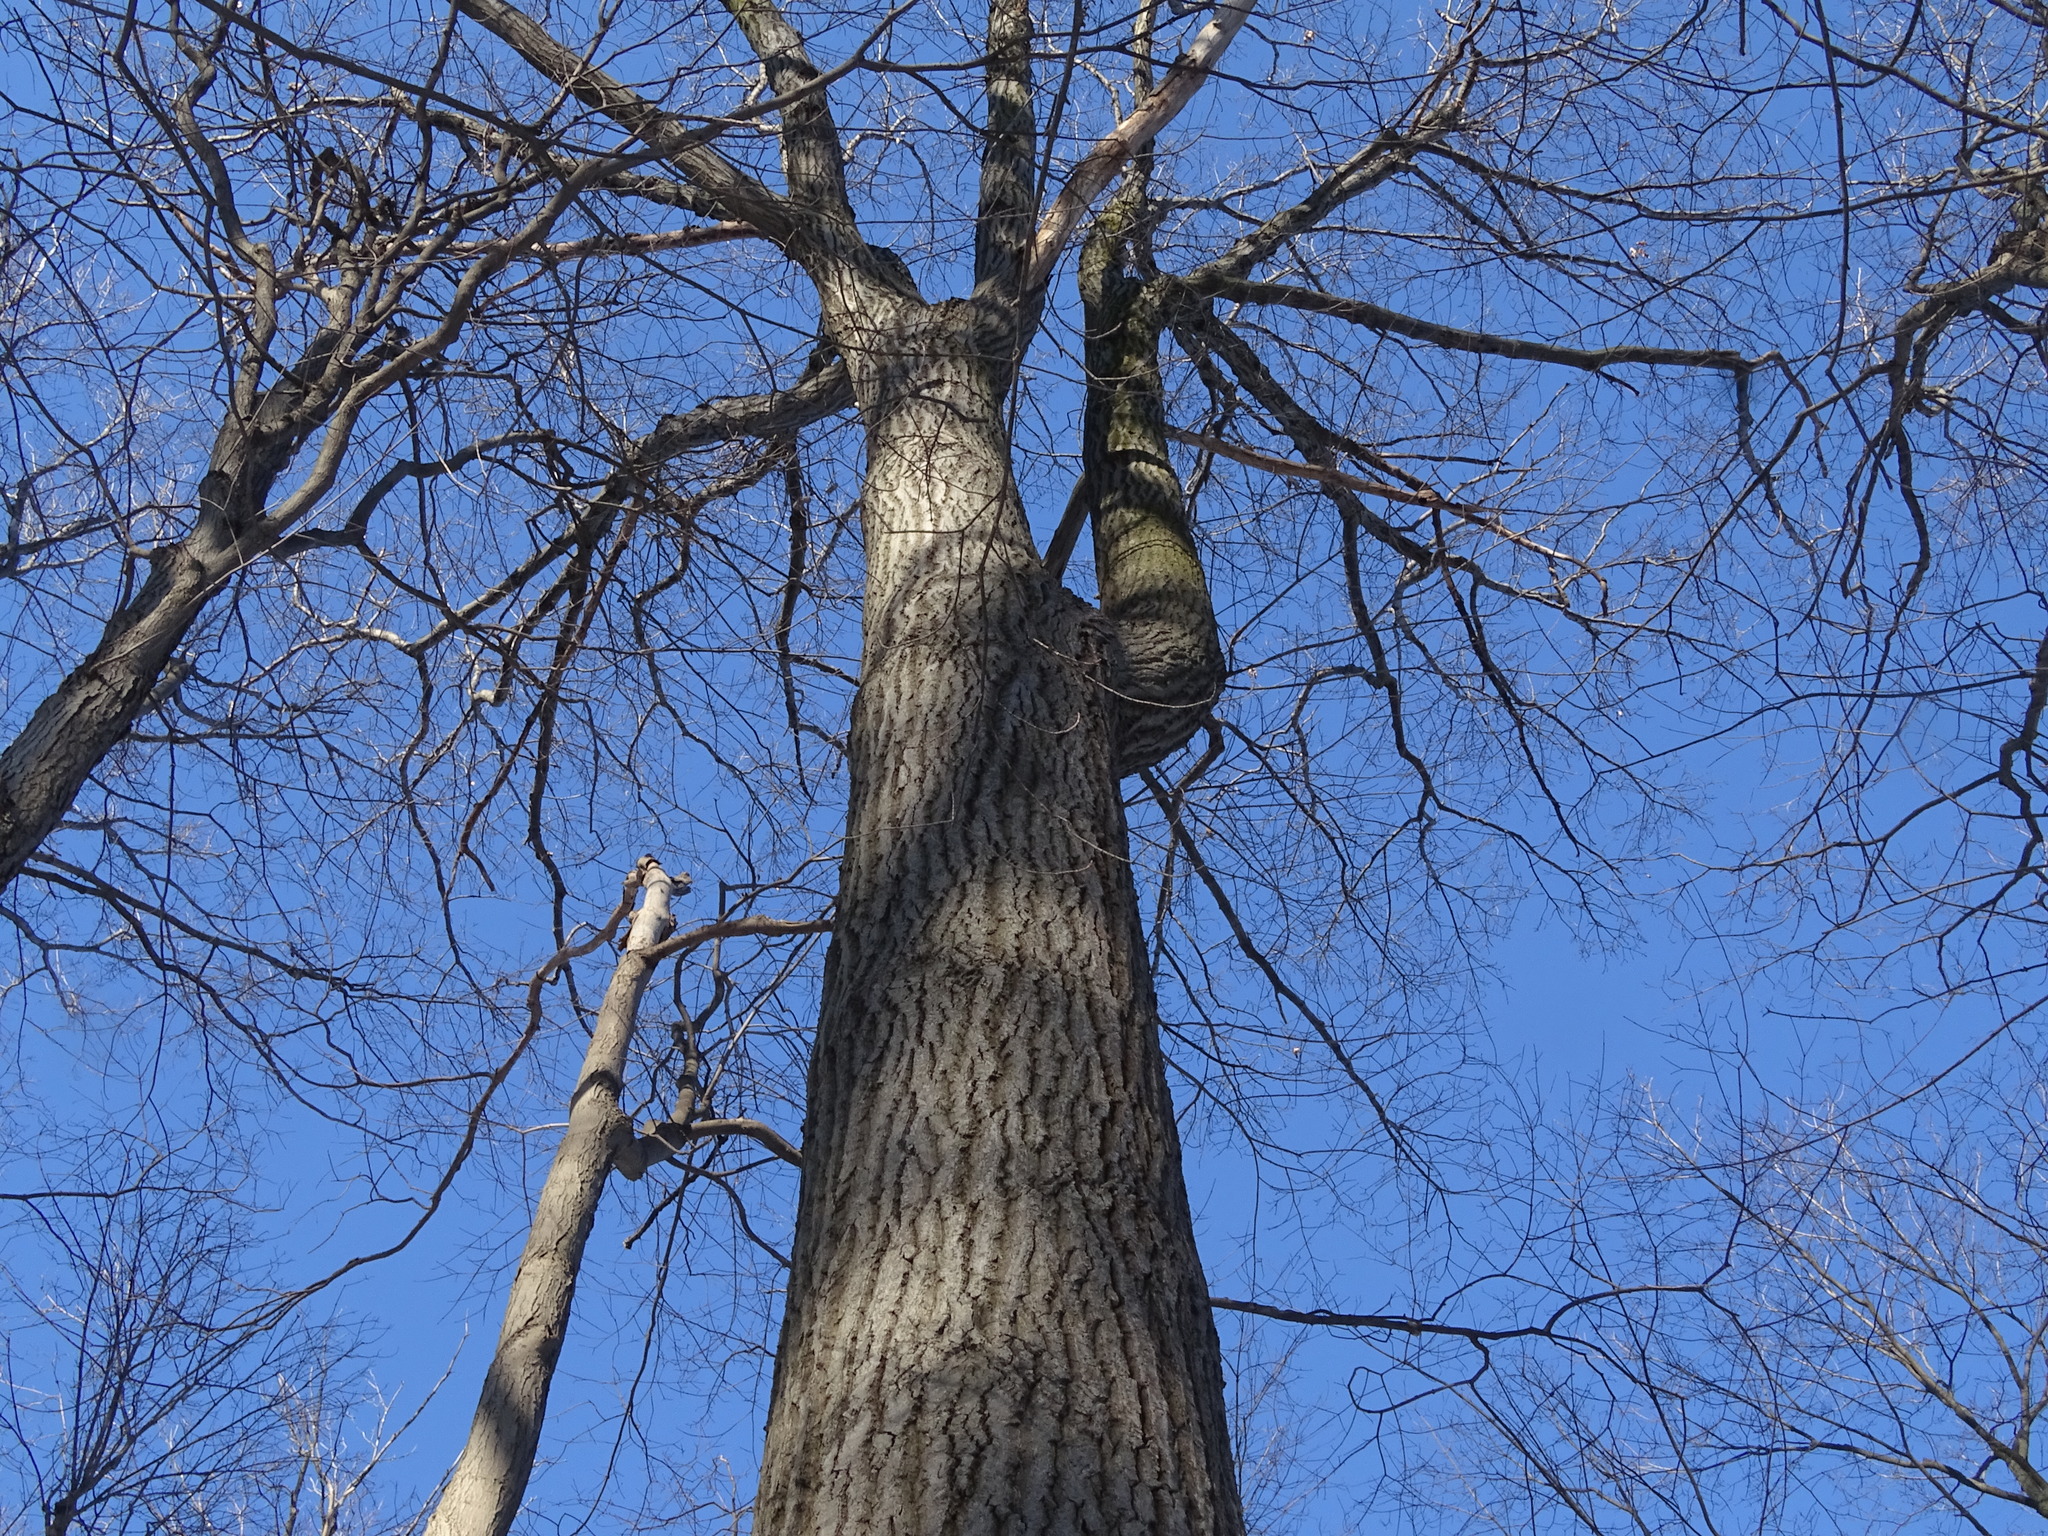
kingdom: Plantae
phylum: Tracheophyta
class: Magnoliopsida
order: Fagales
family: Fagaceae
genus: Quercus
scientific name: Quercus rubra
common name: Red oak
